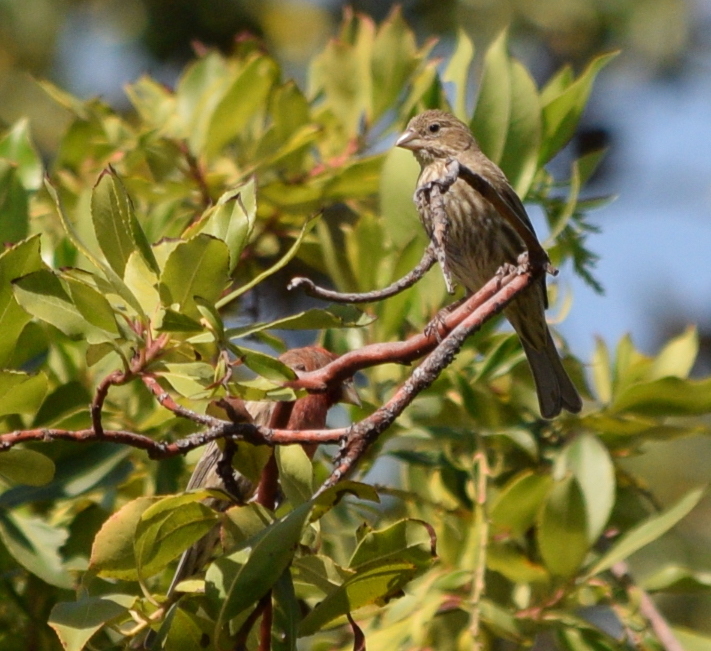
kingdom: Animalia
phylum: Chordata
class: Aves
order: Passeriformes
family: Fringillidae
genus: Haemorhous
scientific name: Haemorhous mexicanus
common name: House finch
